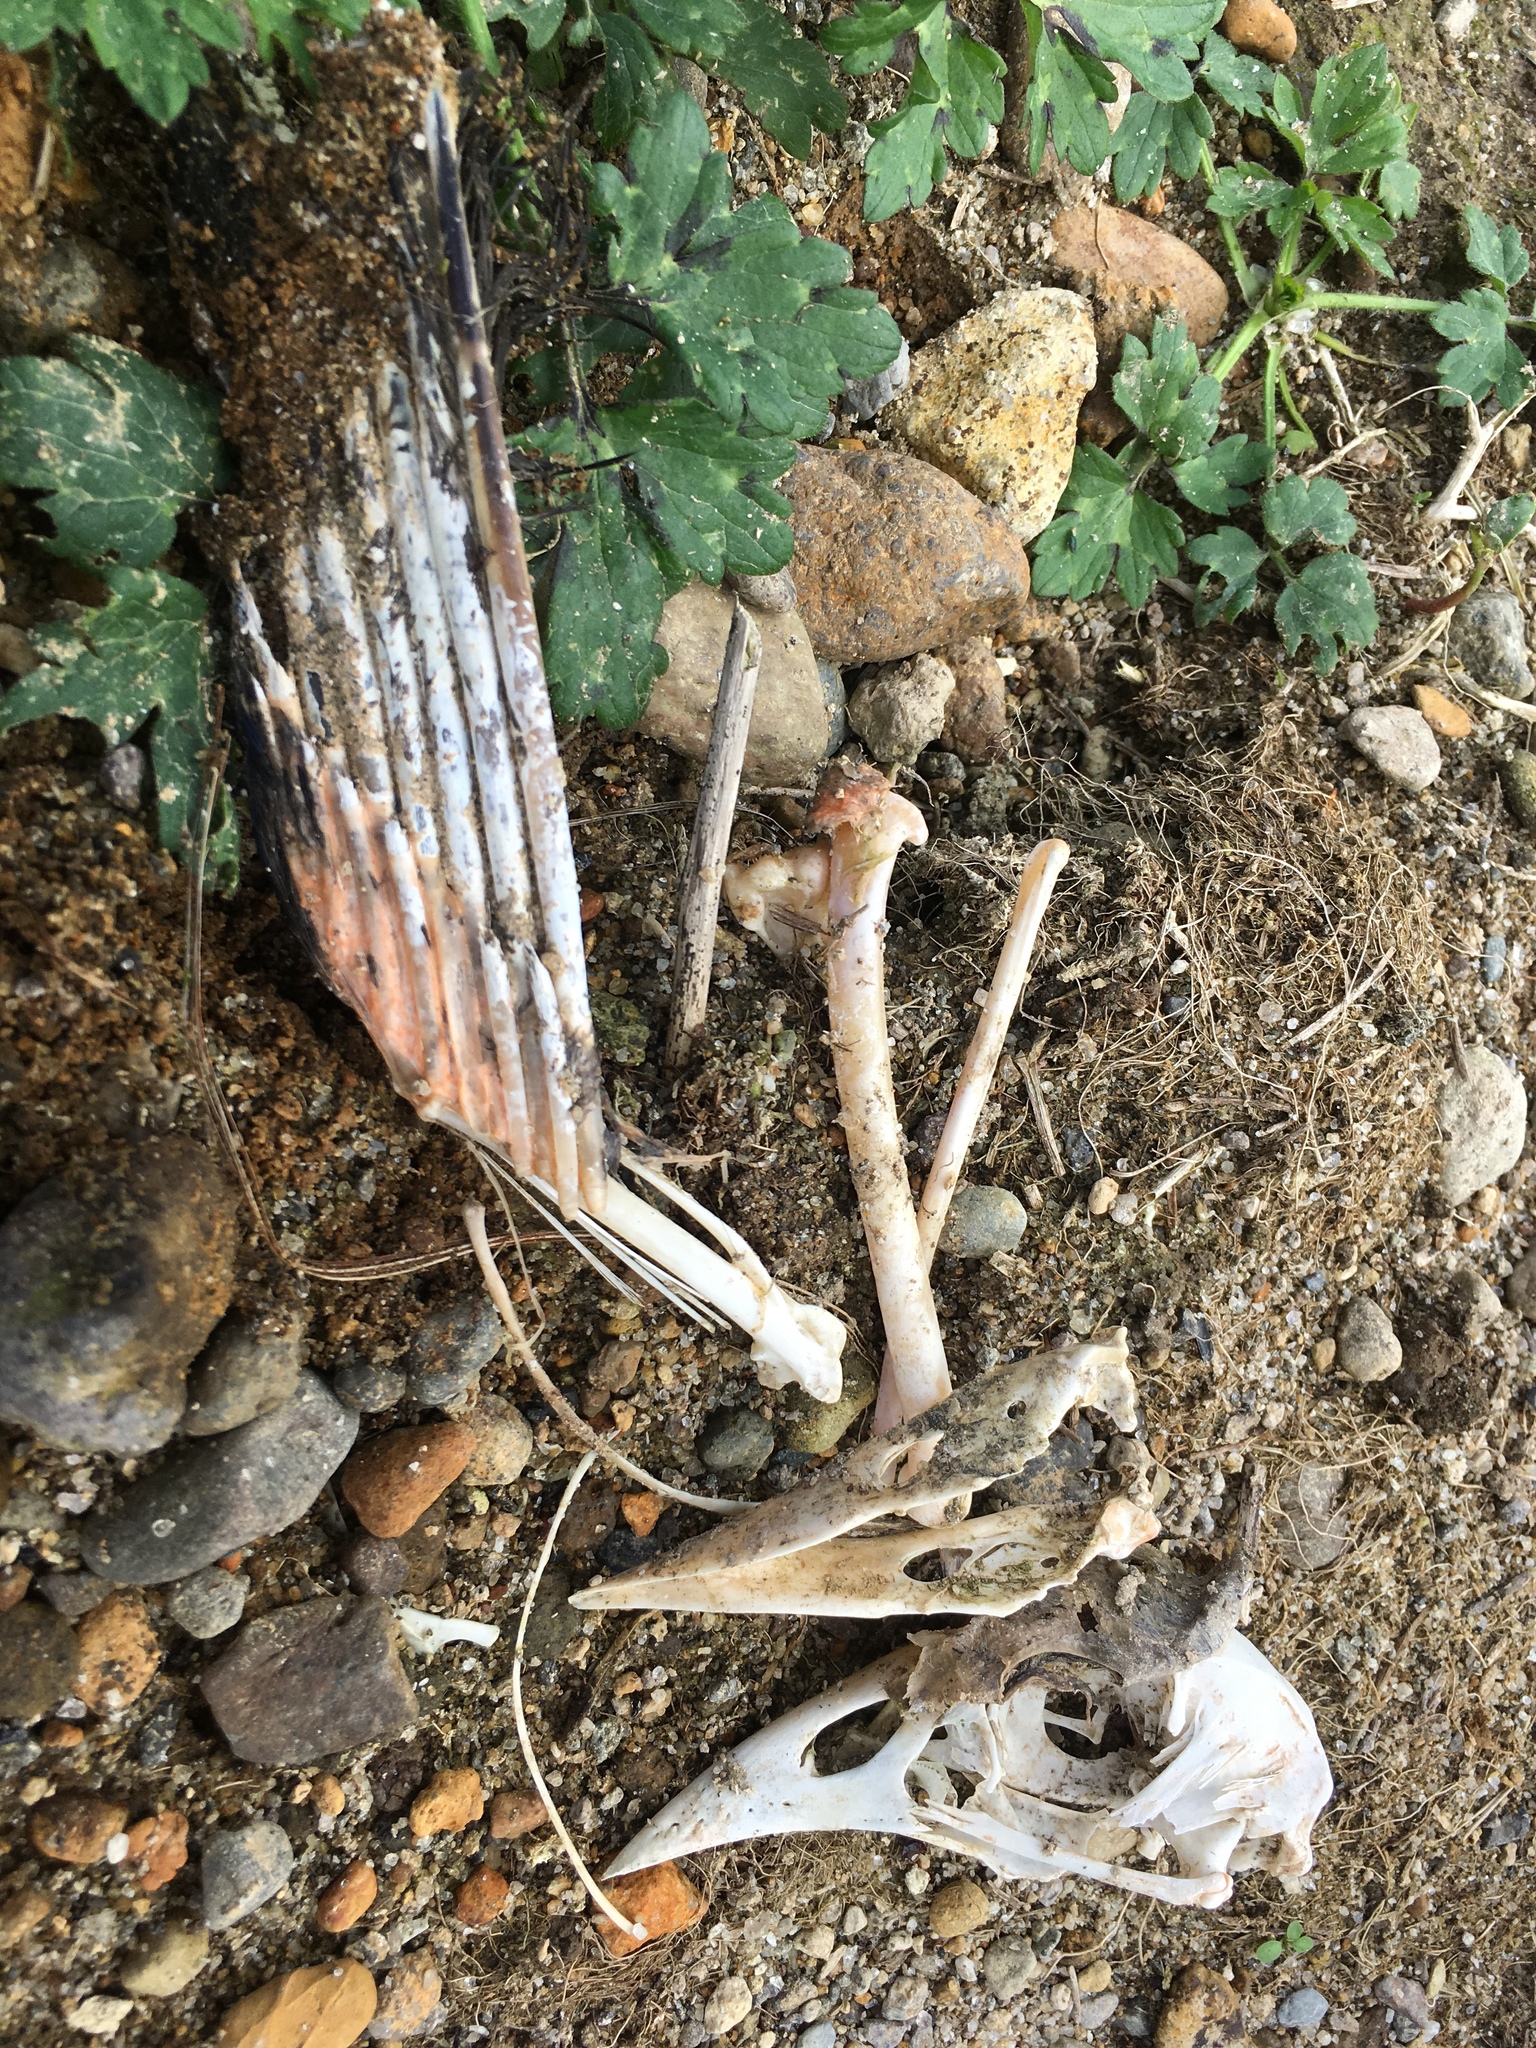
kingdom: Animalia
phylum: Chordata
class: Aves
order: Gruiformes
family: Rallidae
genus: Porphyrio
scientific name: Porphyrio melanotus
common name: Australasian swamphen
